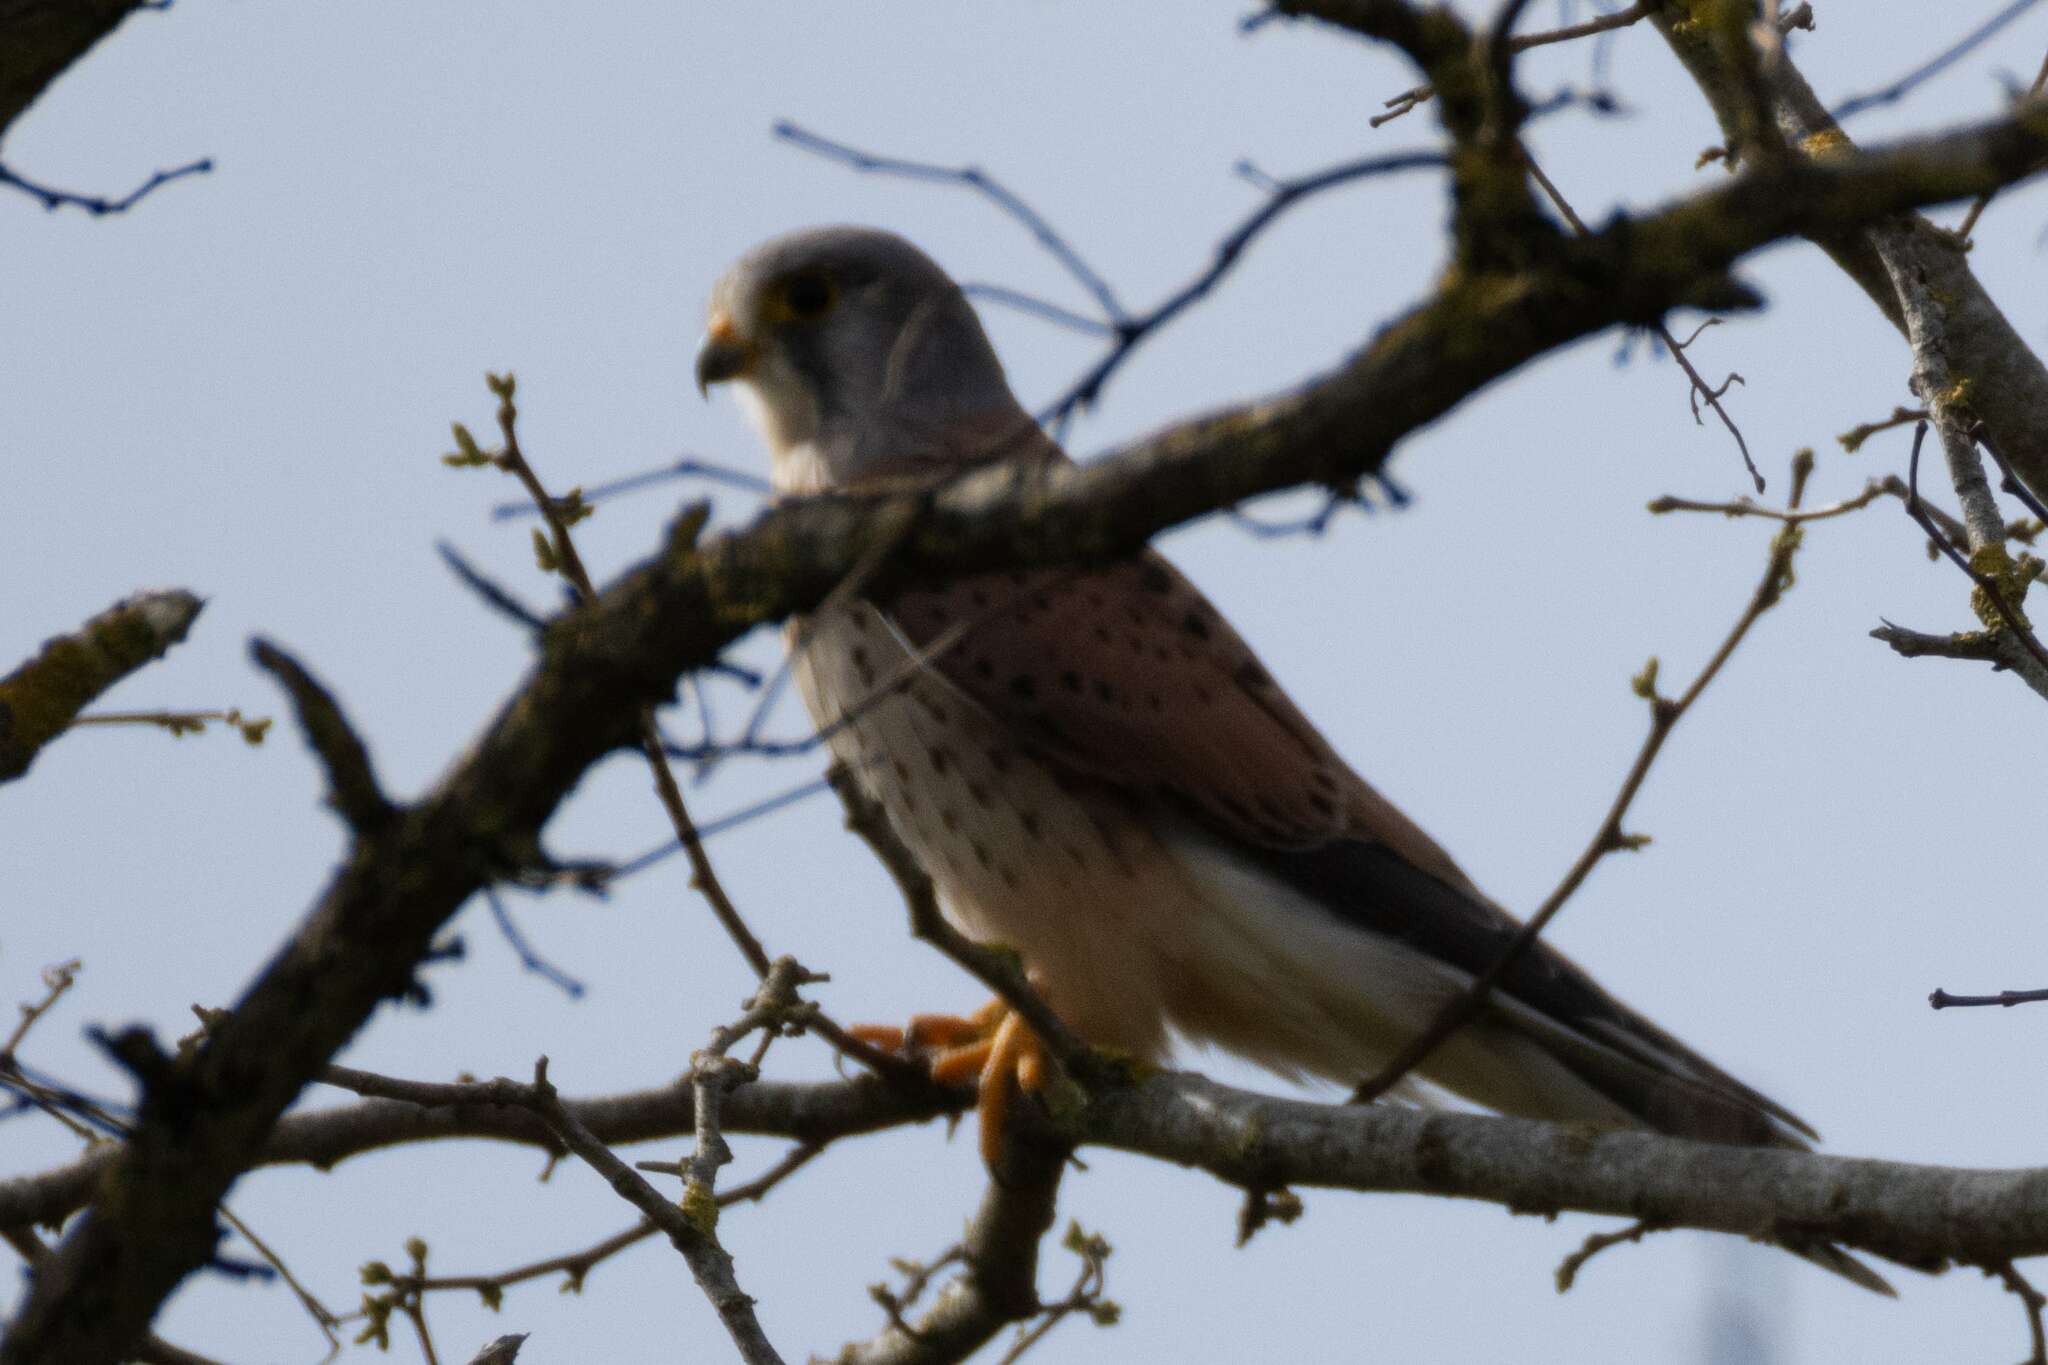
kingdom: Animalia
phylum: Chordata
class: Aves
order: Falconiformes
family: Falconidae
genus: Falco
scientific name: Falco tinnunculus
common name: Common kestrel
